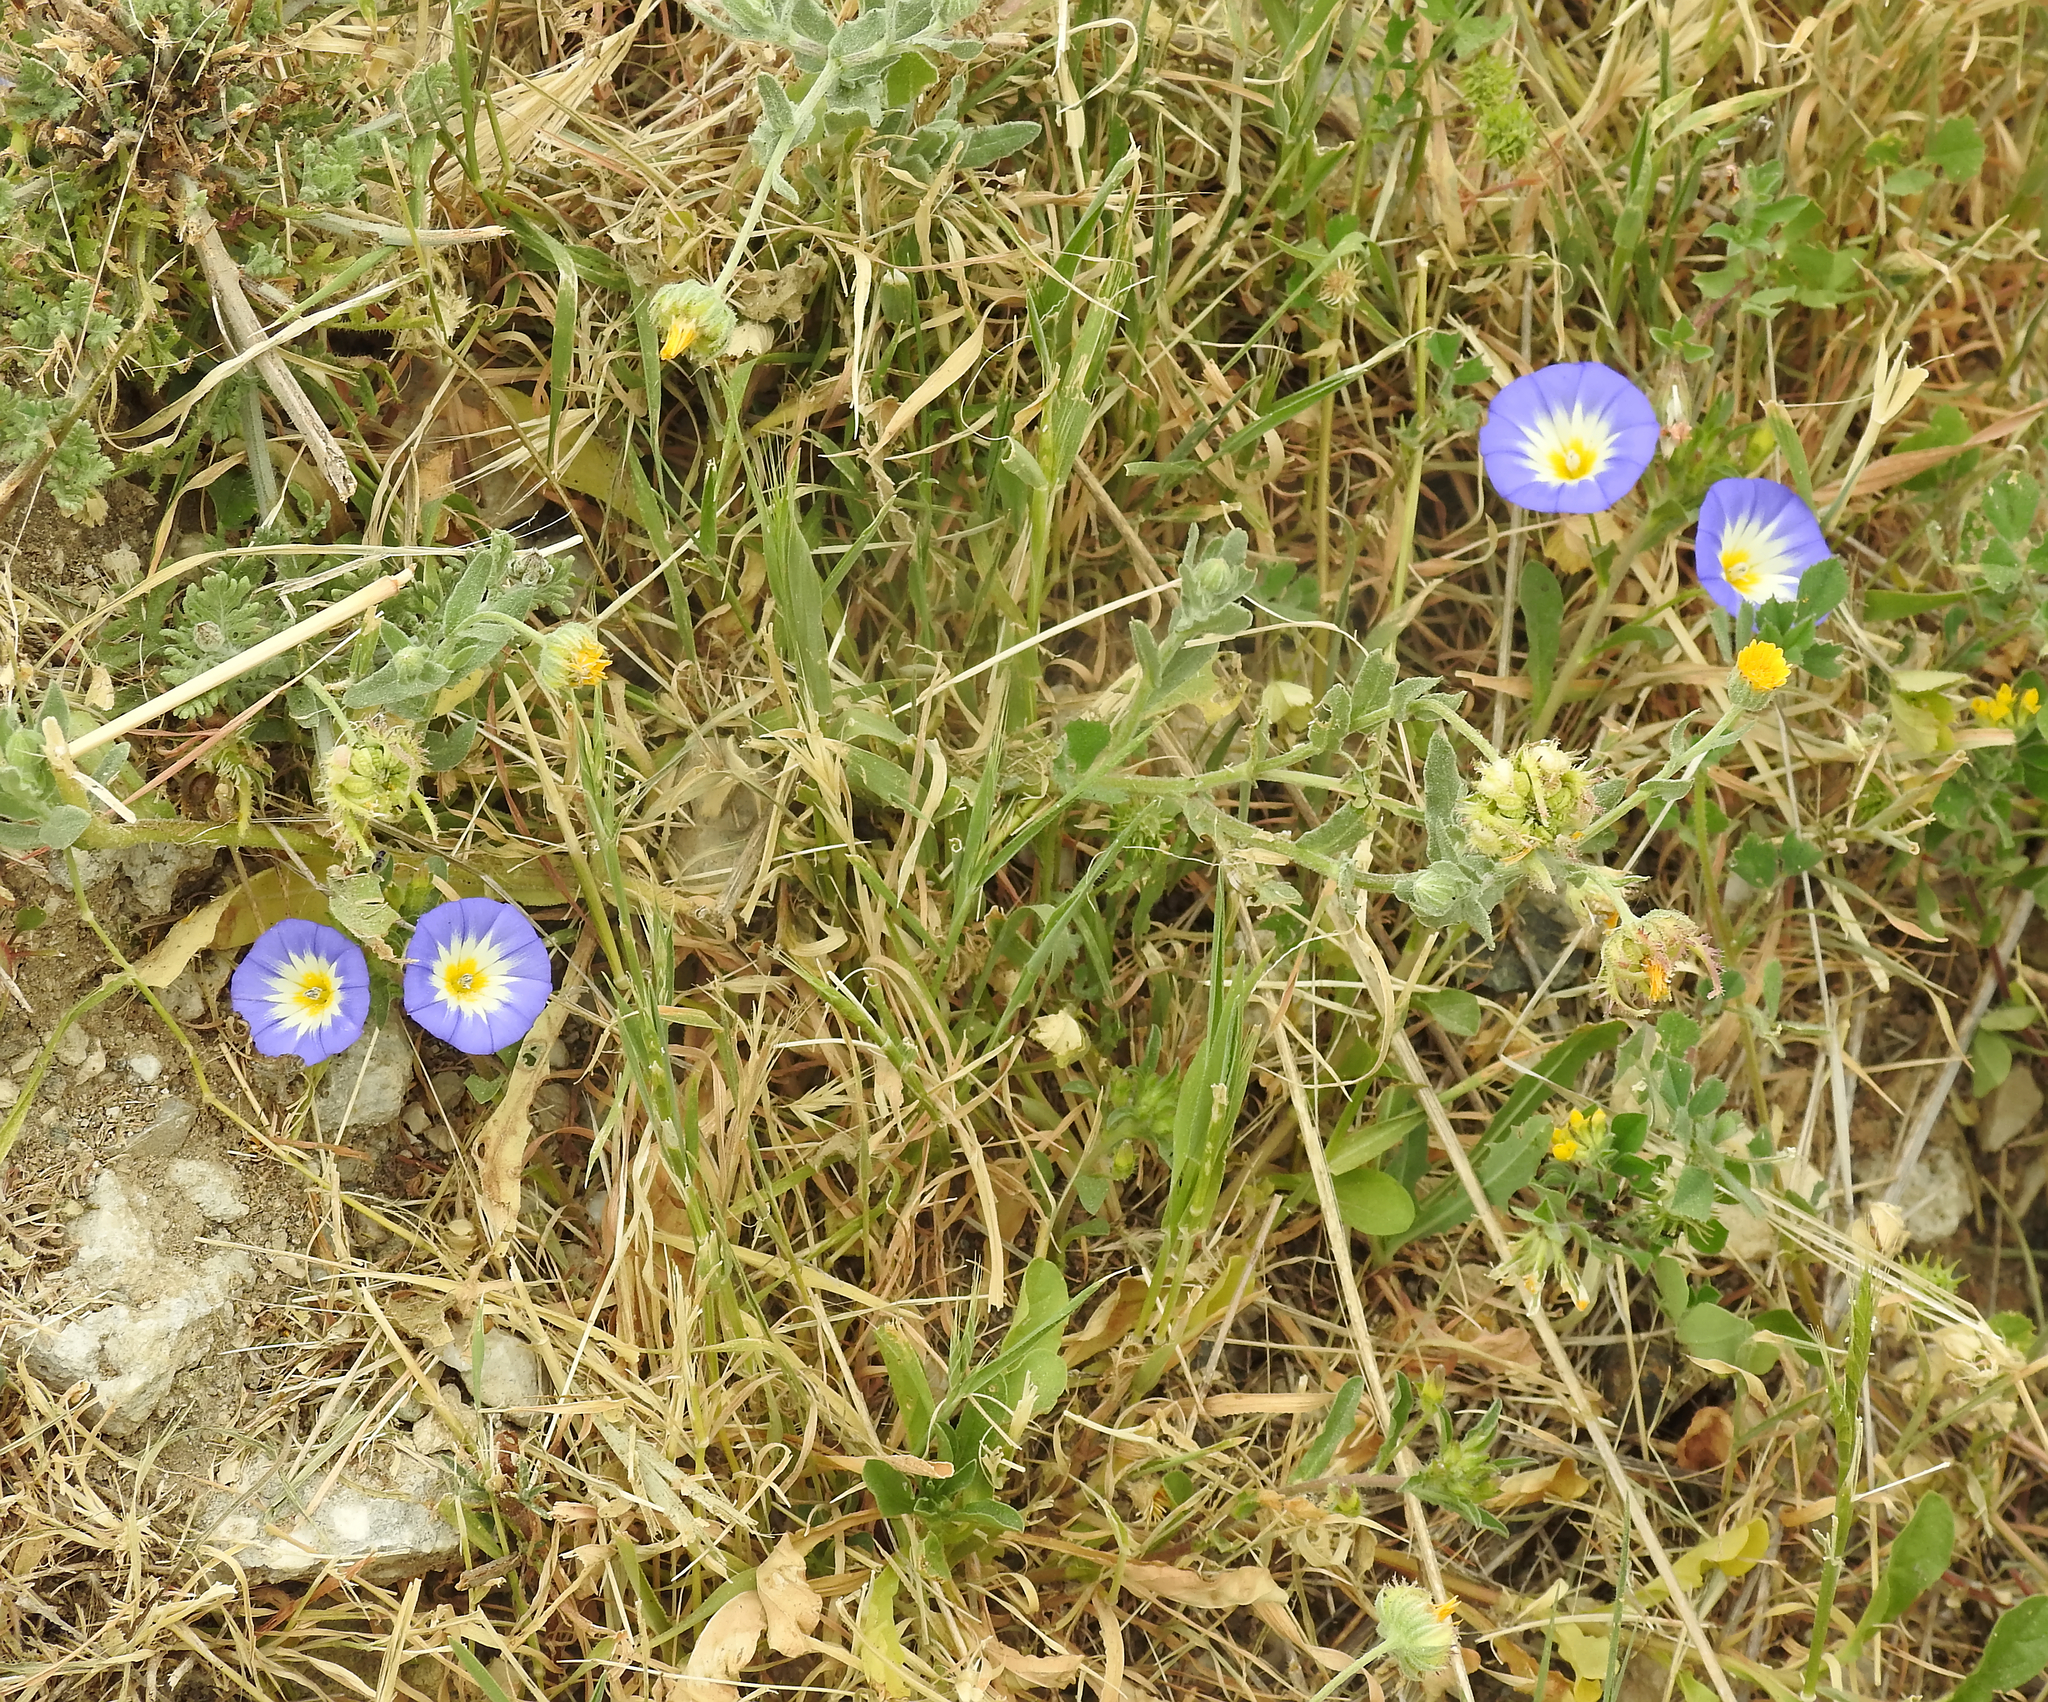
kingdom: Plantae
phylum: Tracheophyta
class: Magnoliopsida
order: Solanales
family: Convolvulaceae
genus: Convolvulus
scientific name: Convolvulus tricolor
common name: Dwarf morning-glory
